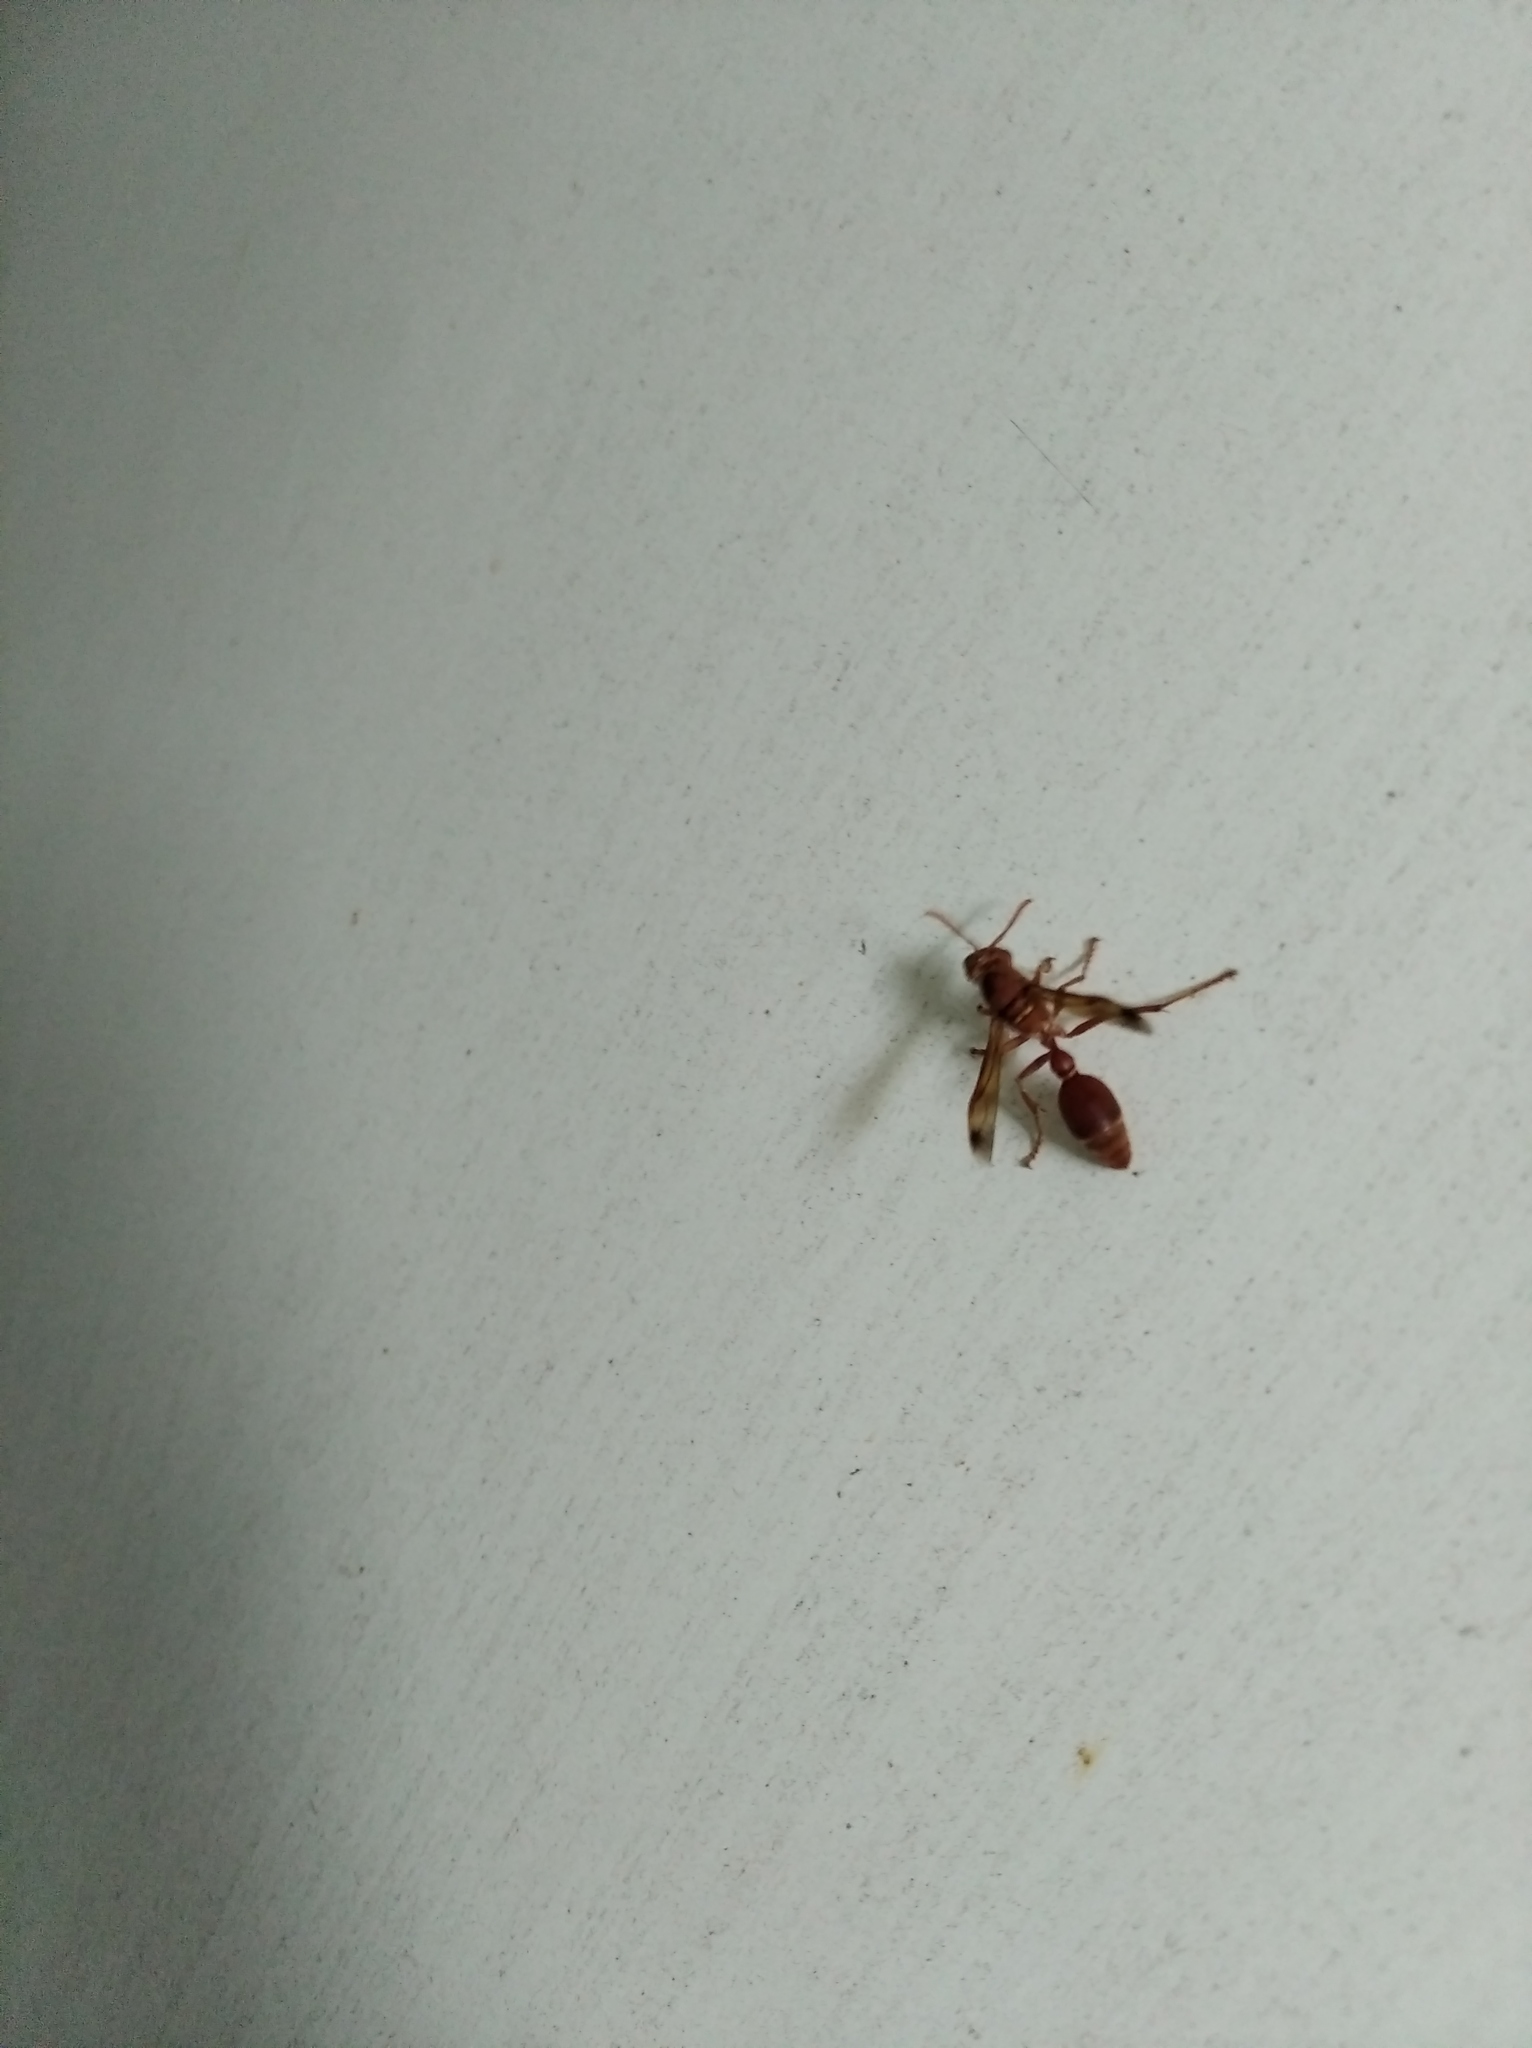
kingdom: Animalia
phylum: Arthropoda
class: Insecta
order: Hymenoptera
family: Vespidae
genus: Ropalidia
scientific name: Ropalidia marginata
